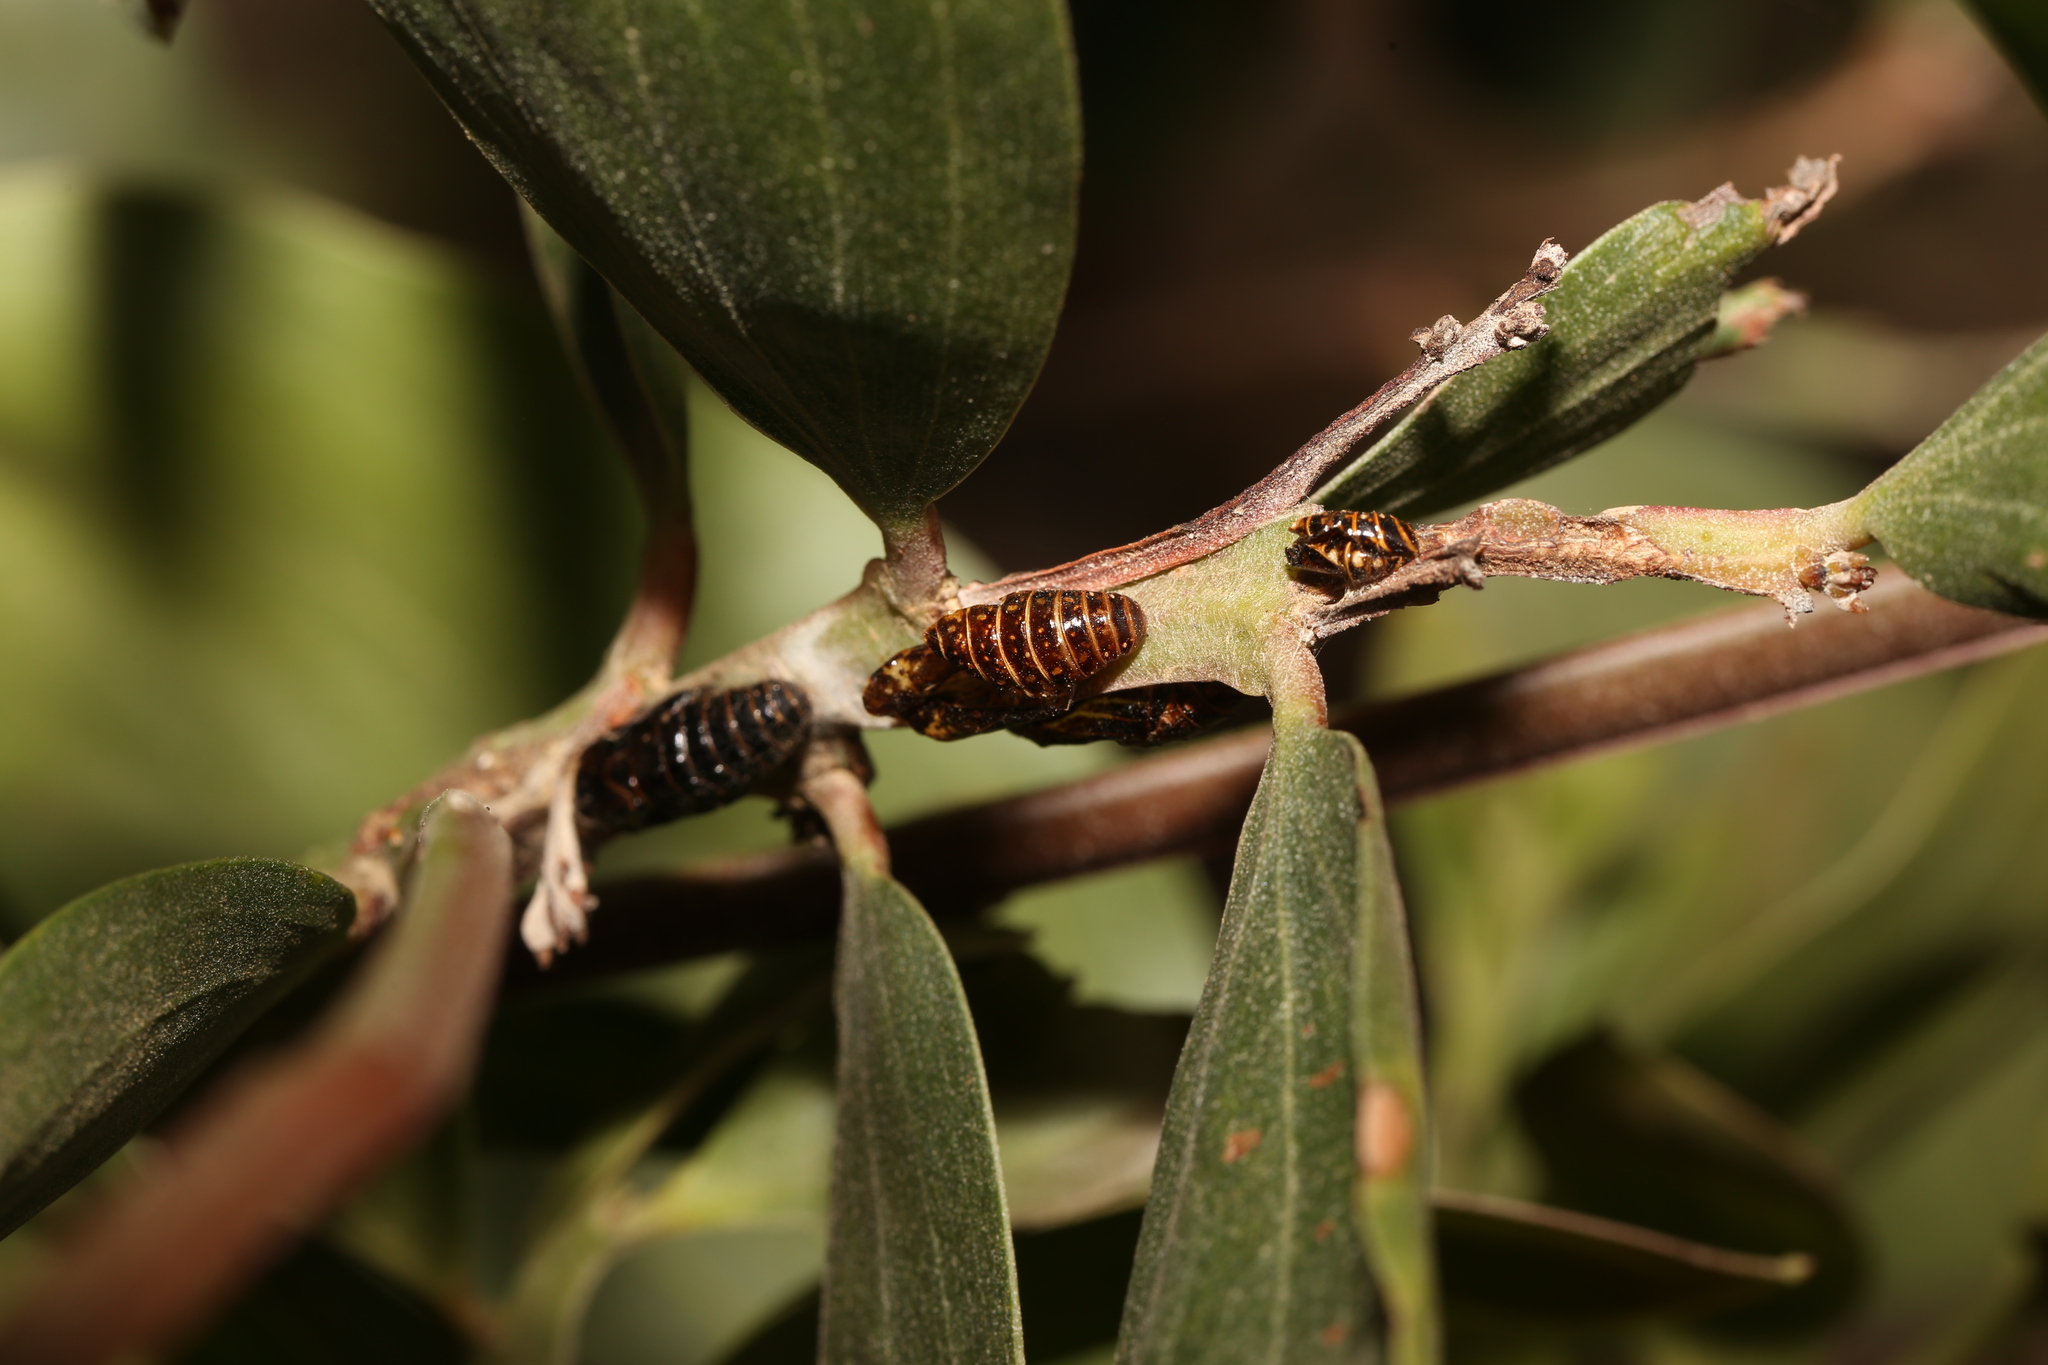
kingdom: Animalia
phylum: Arthropoda
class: Insecta
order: Lepidoptera
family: Lycaenidae
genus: Jalmenus
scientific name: Jalmenus evagoras
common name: Common imperial blue
